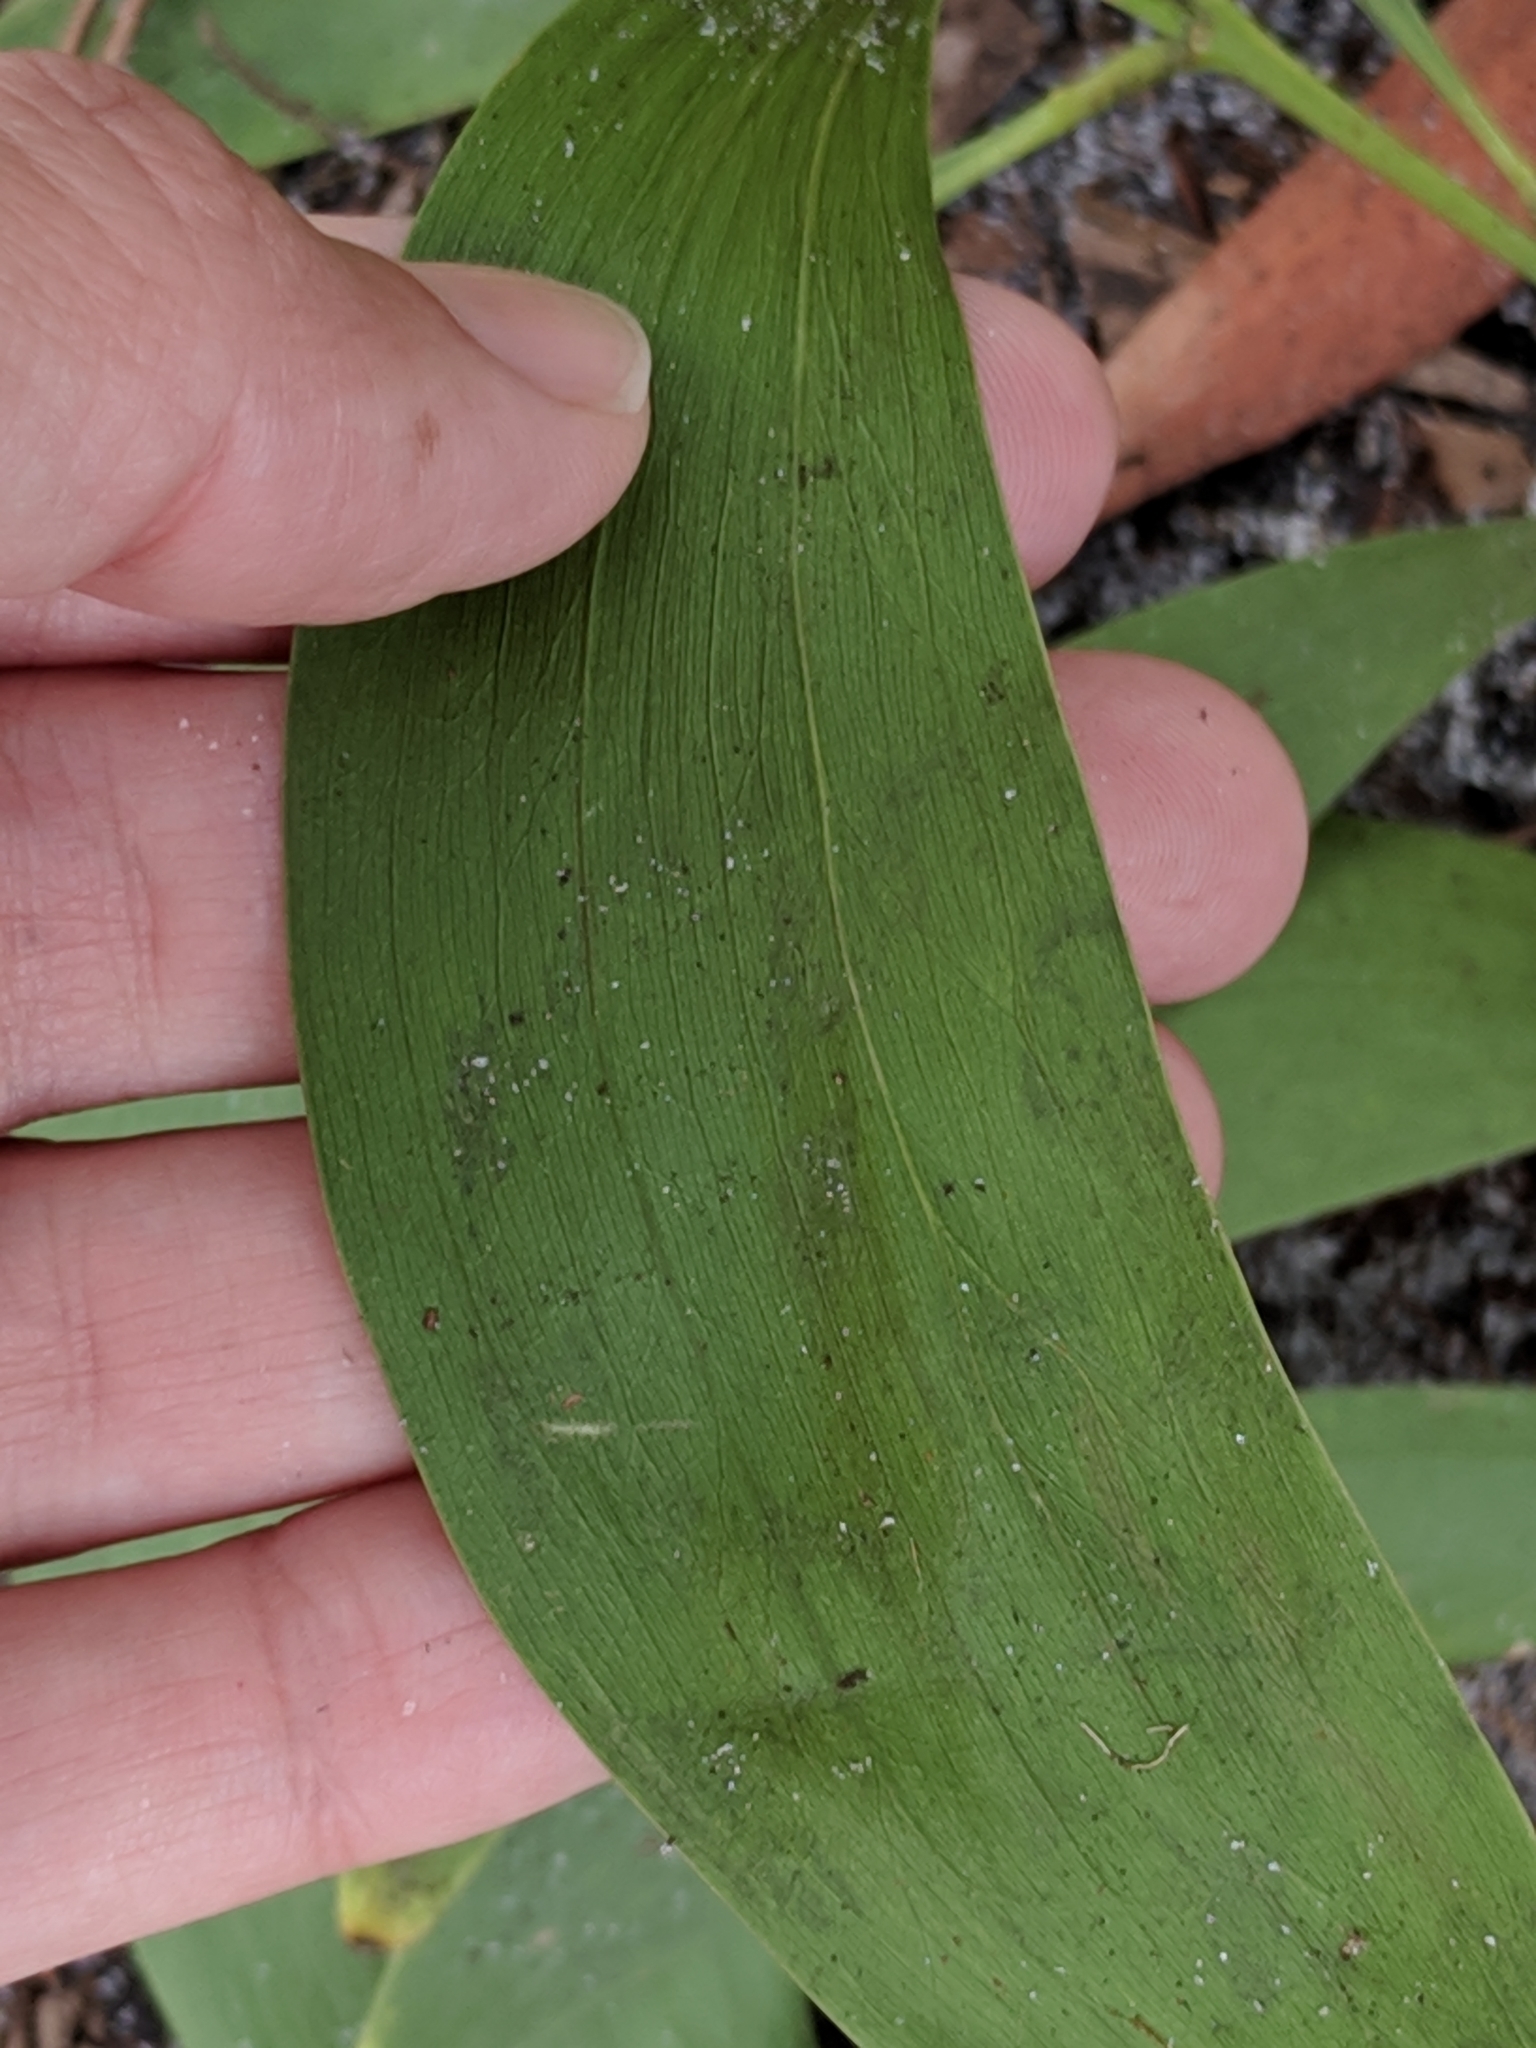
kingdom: Plantae
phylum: Tracheophyta
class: Magnoliopsida
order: Fabales
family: Fabaceae
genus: Acacia
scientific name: Acacia auriculiformis
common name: Earleaf acacia
